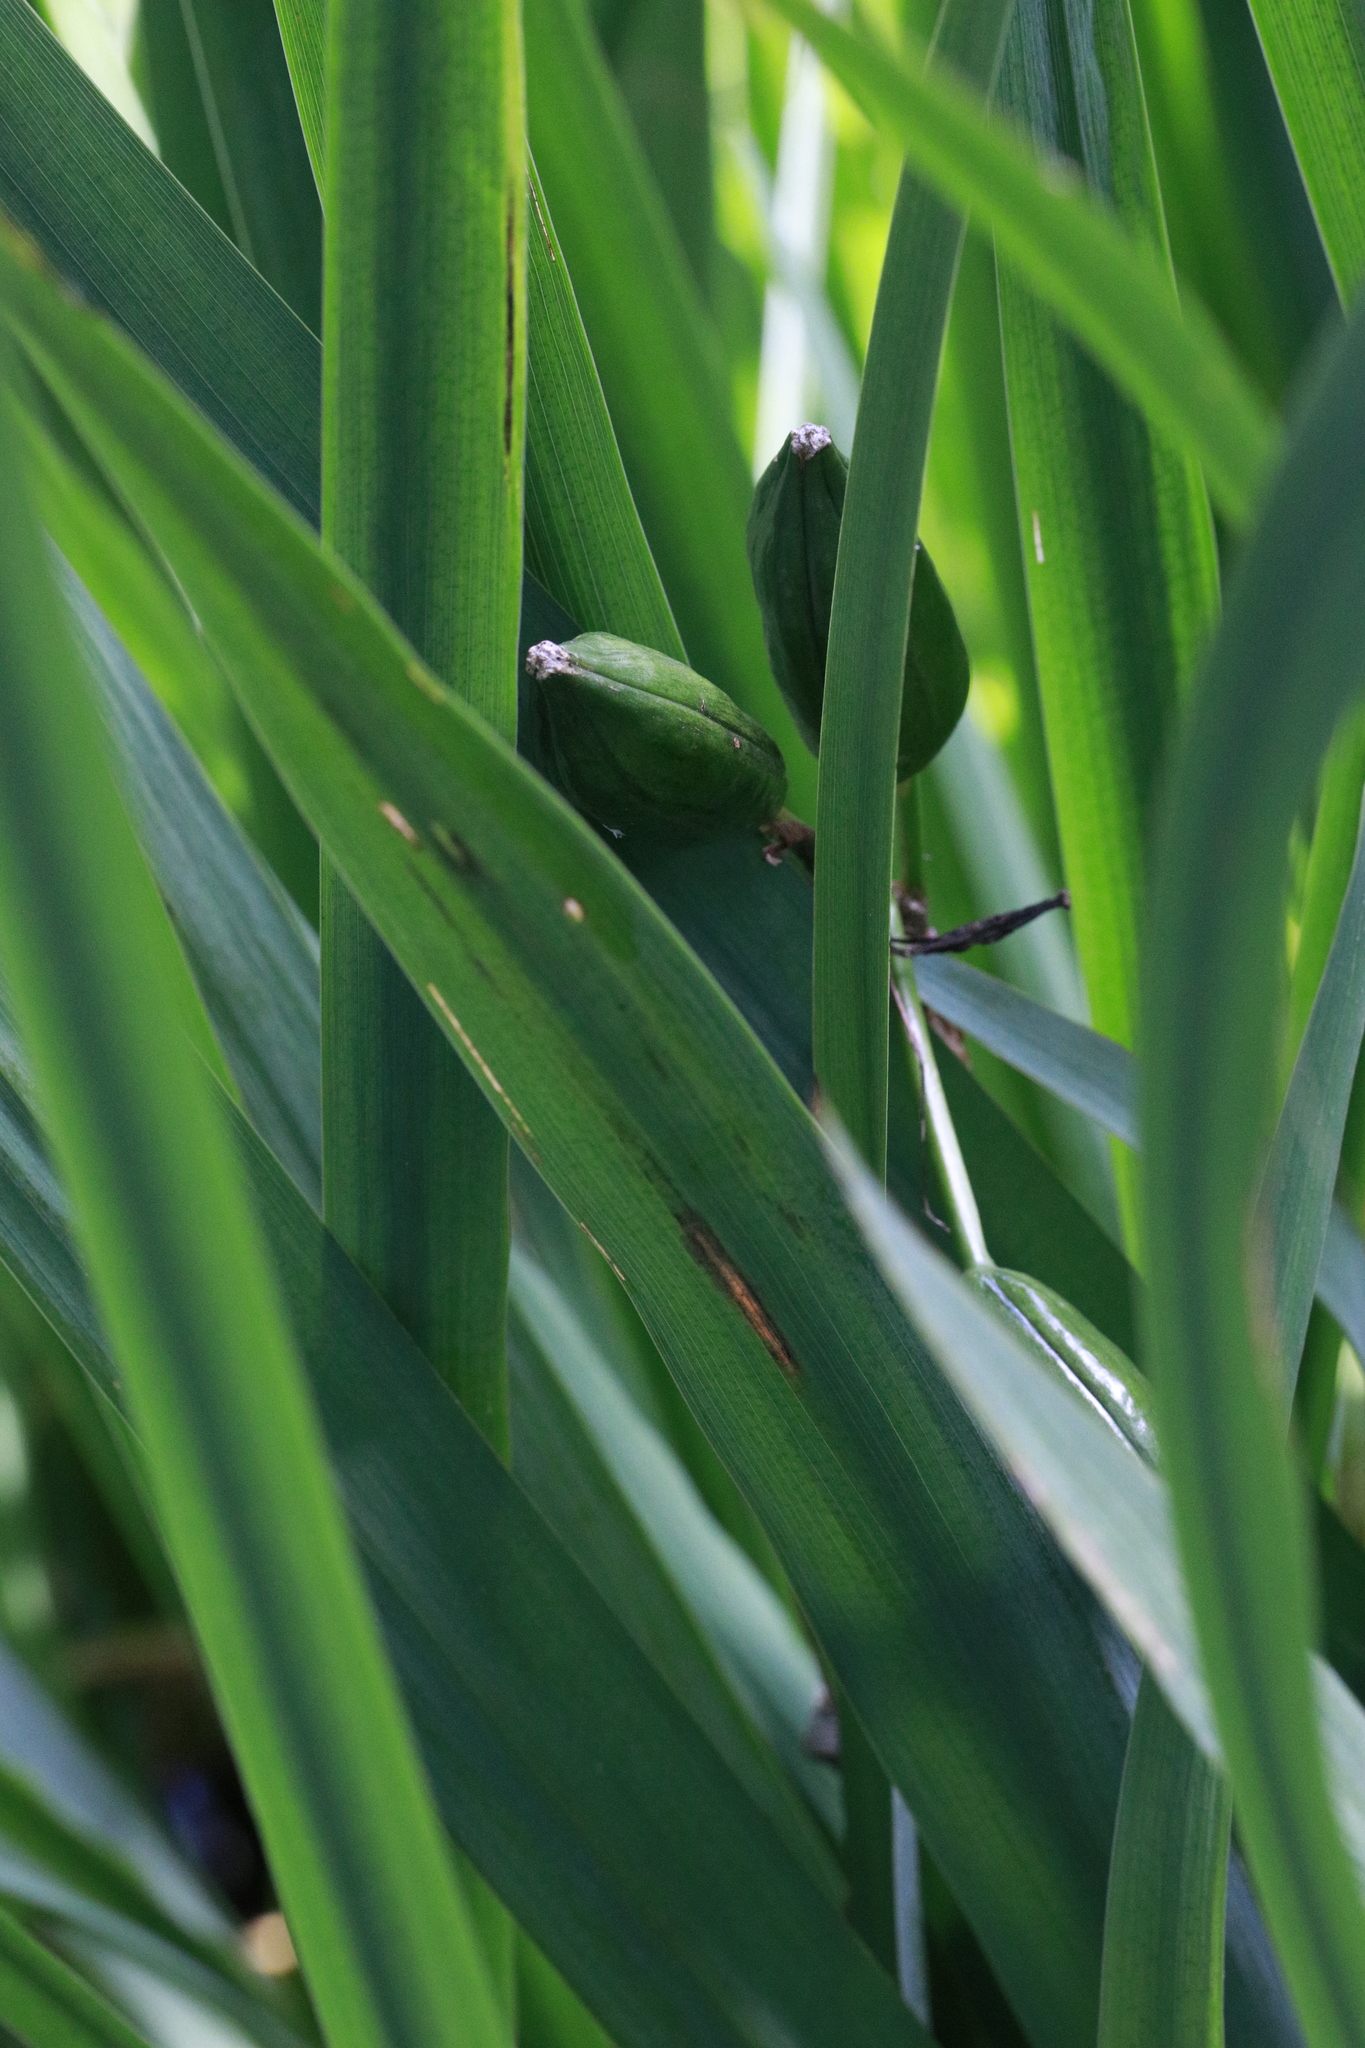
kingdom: Plantae
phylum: Tracheophyta
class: Liliopsida
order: Asparagales
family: Iridaceae
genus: Iris
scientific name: Iris pseudacorus
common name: Yellow flag
